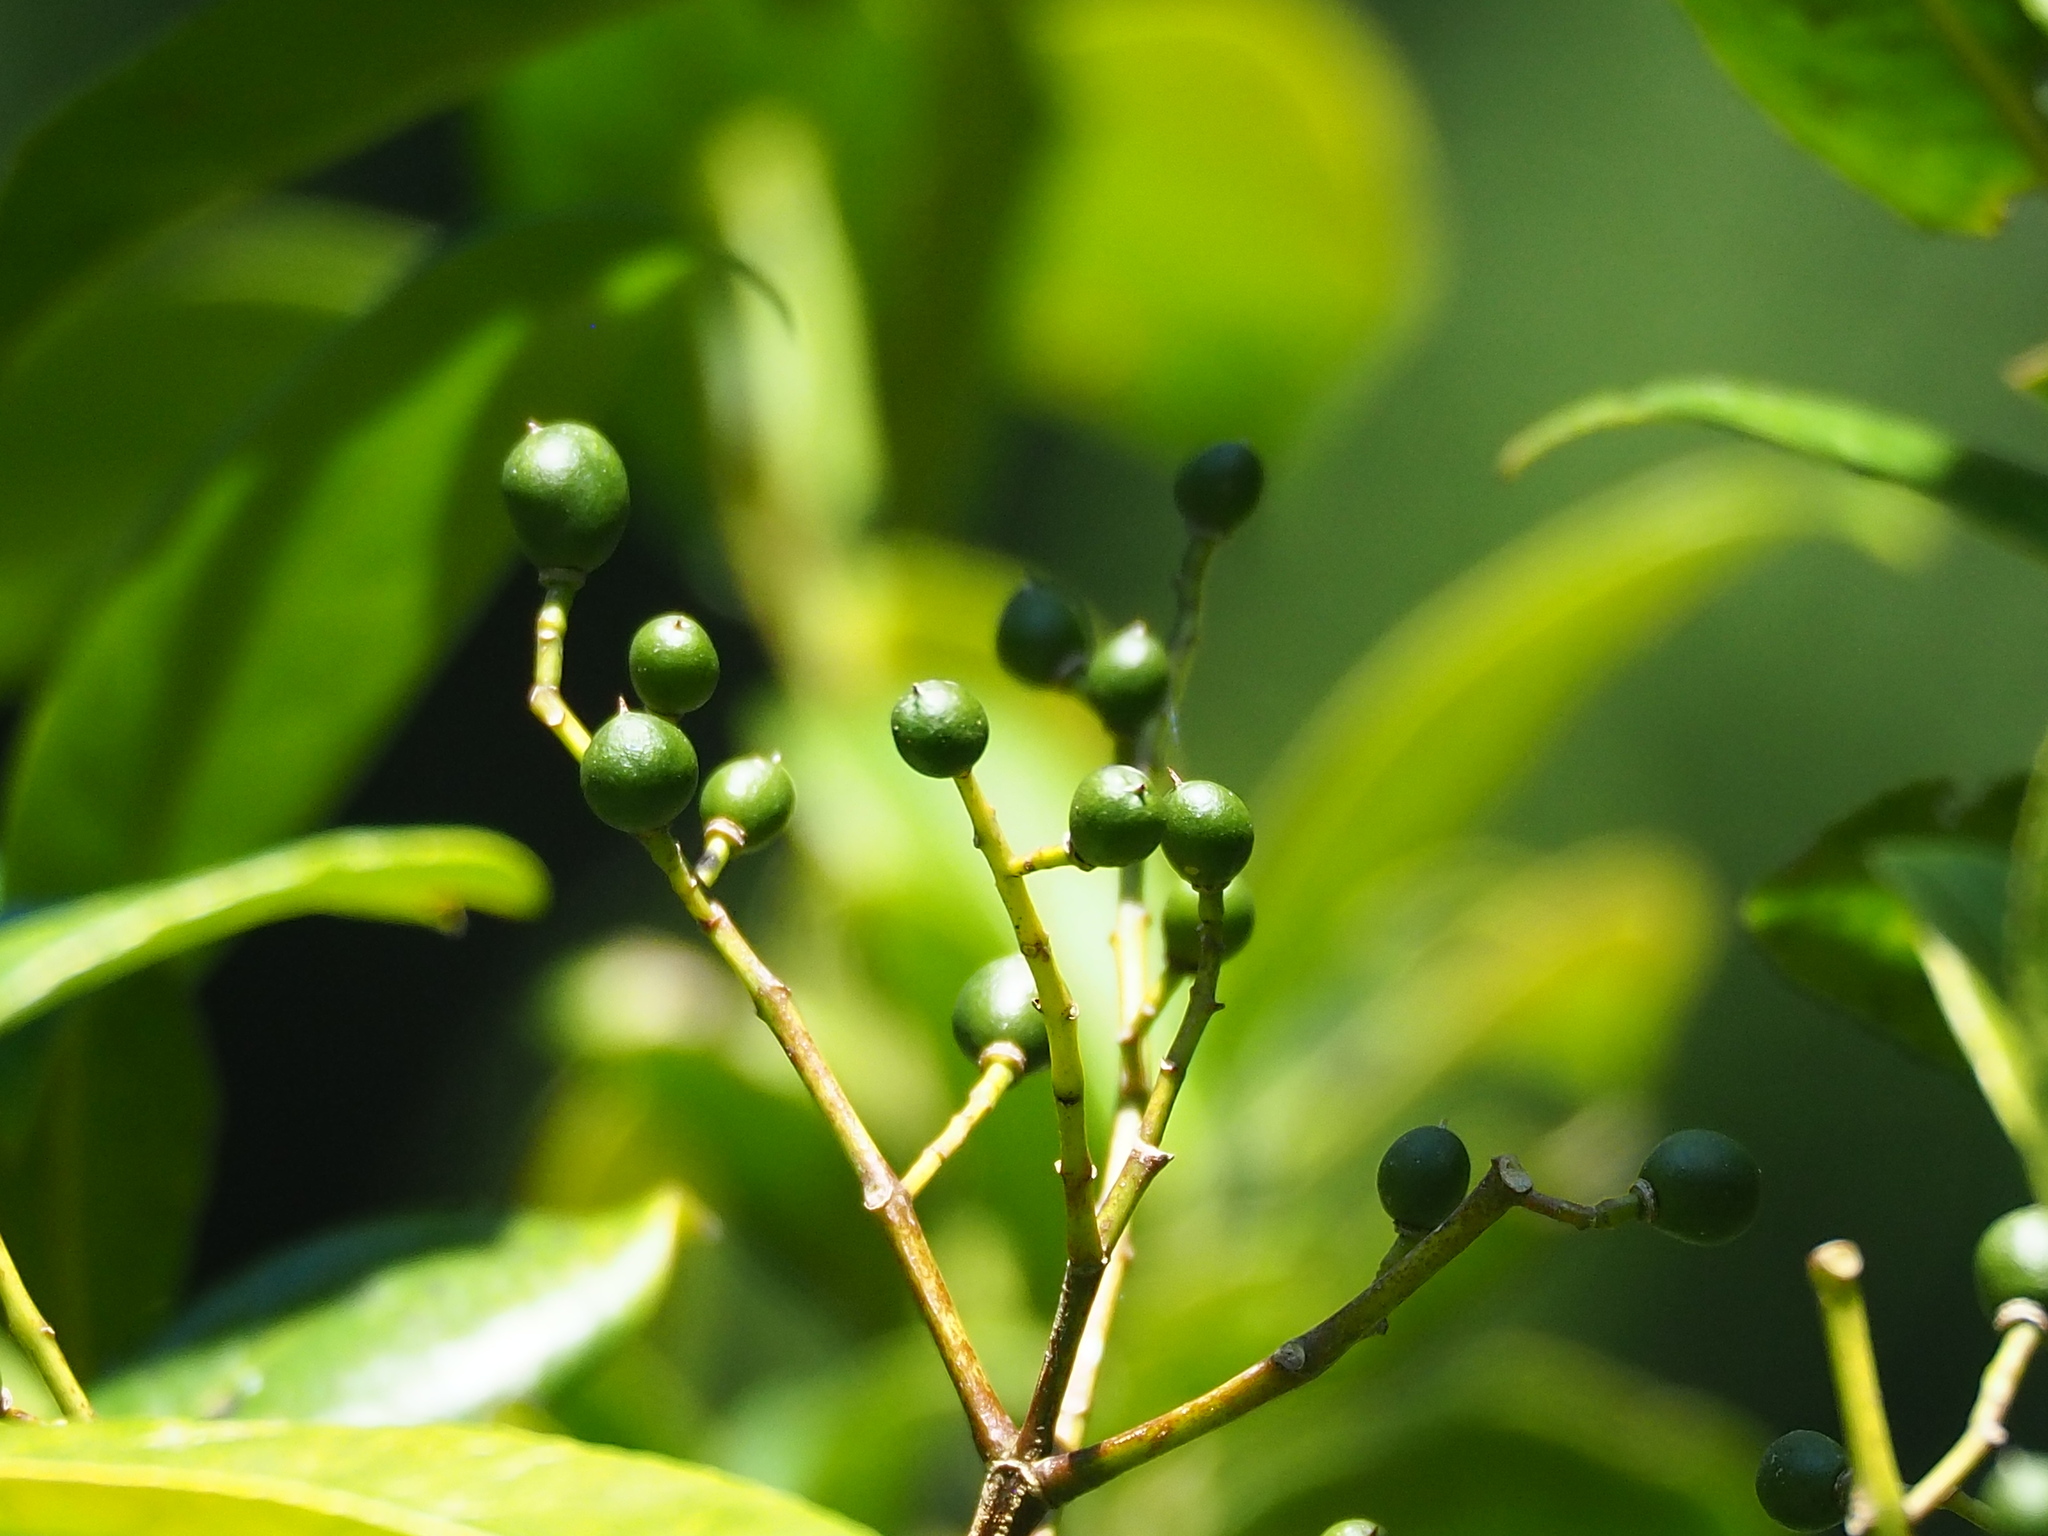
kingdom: Plantae
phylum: Tracheophyta
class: Magnoliopsida
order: Crossosomatales
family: Staphyleaceae
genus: Turpinia
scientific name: Turpinia formosana
